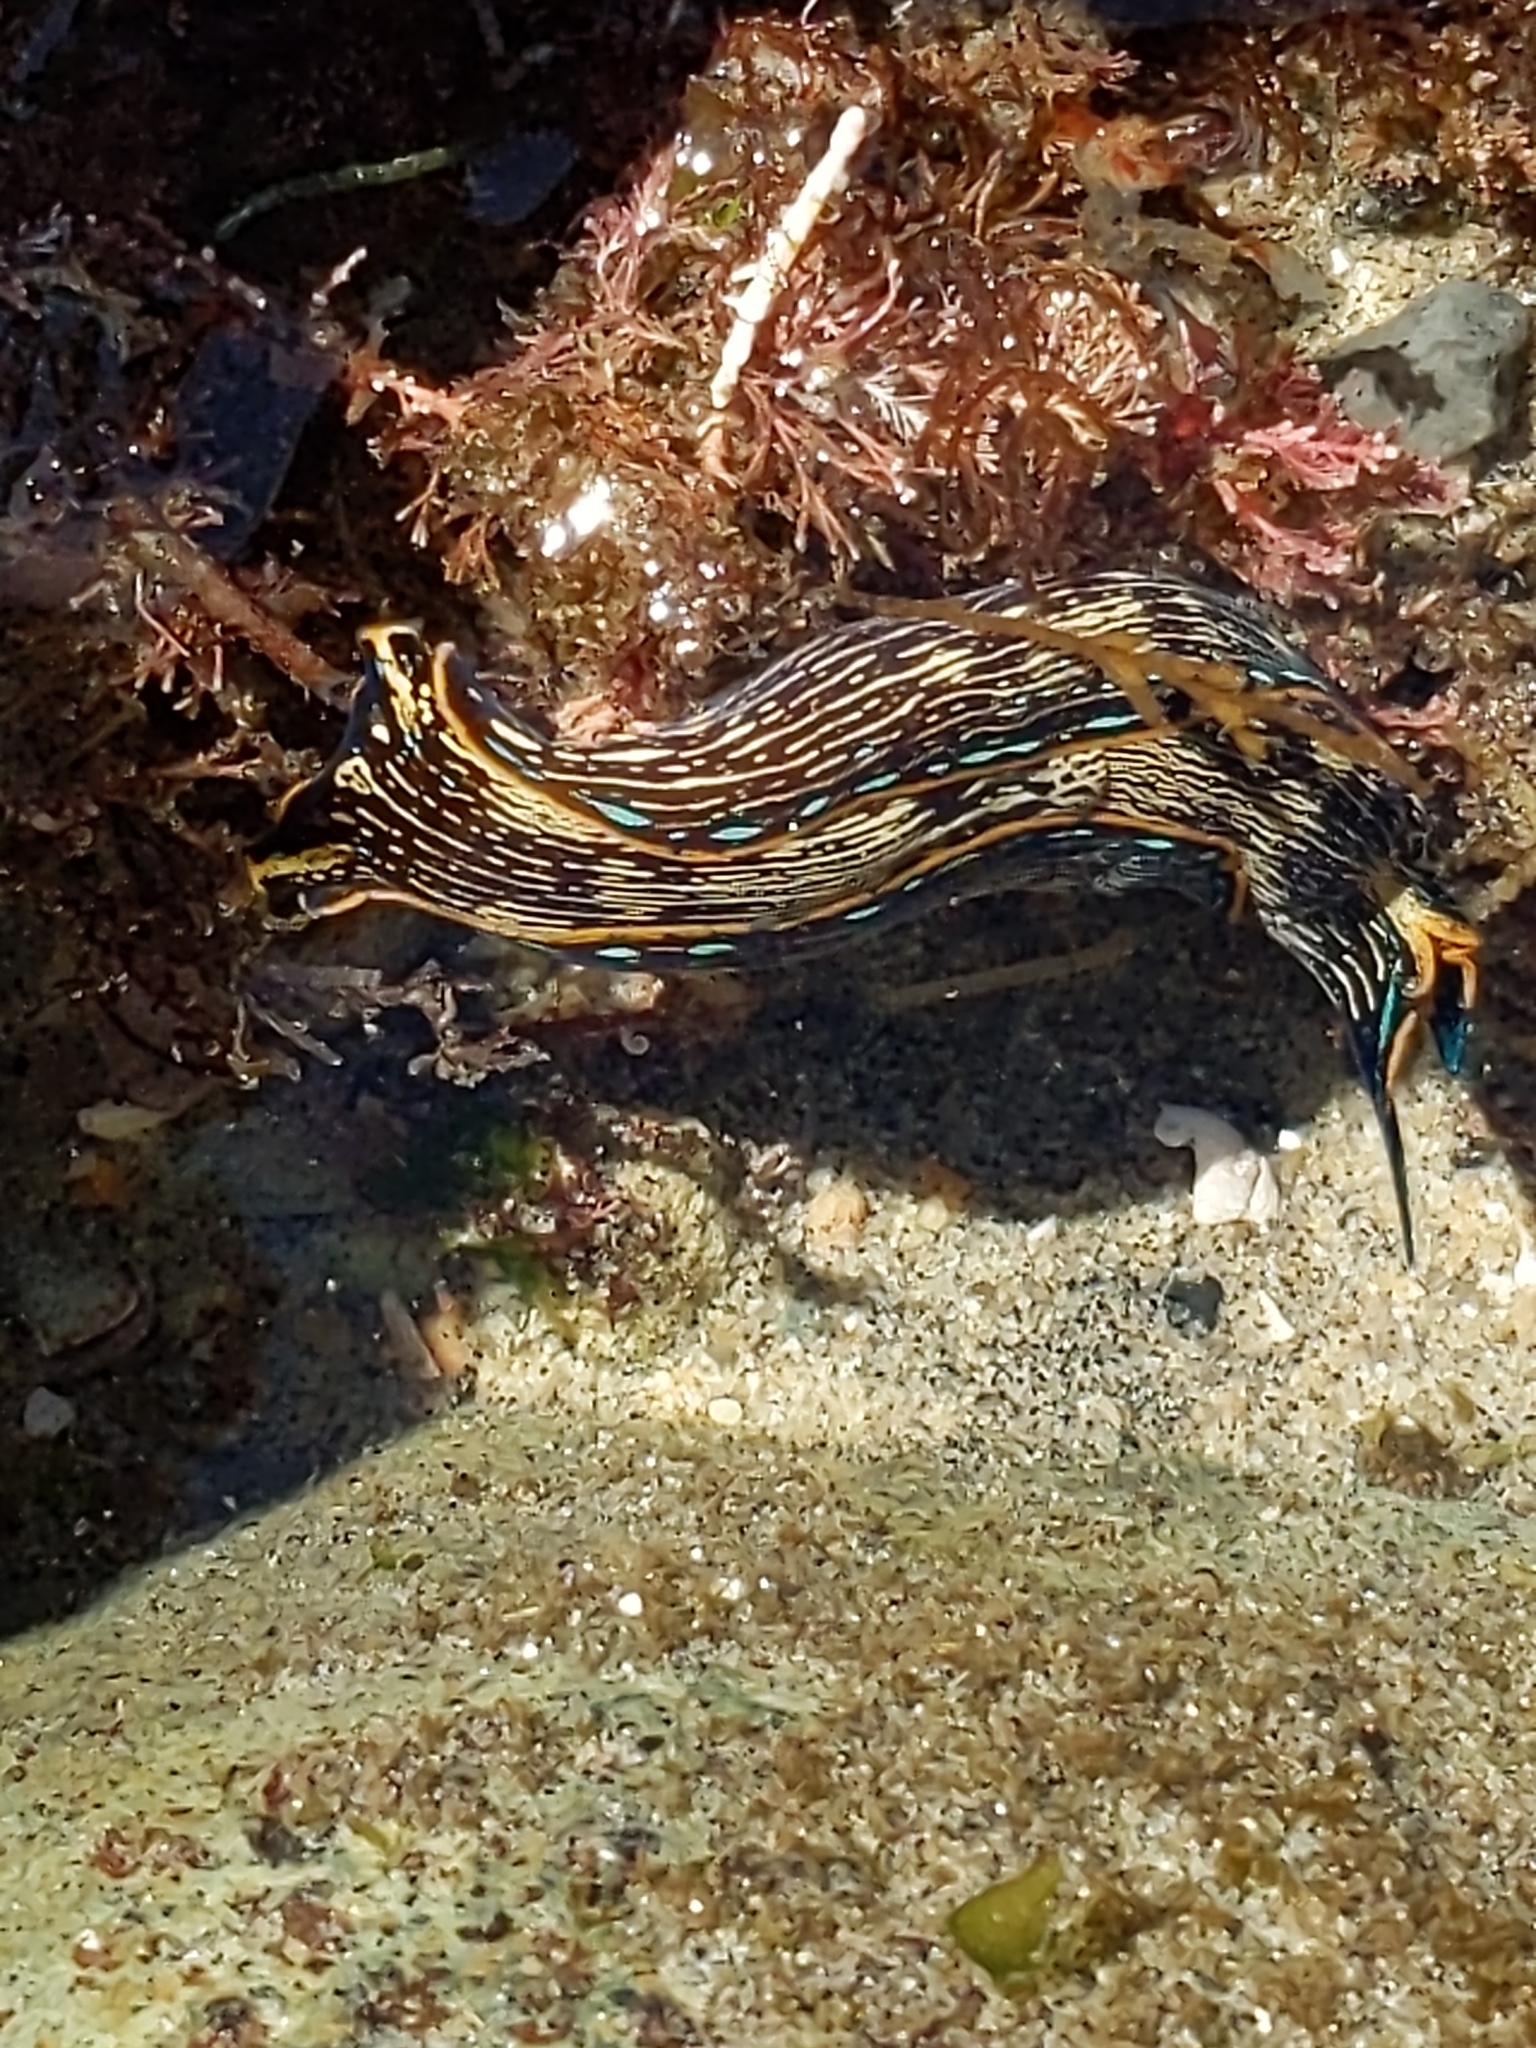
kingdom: Animalia
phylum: Mollusca
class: Gastropoda
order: Cephalaspidea
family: Aglajidae
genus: Navanax
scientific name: Navanax inermis
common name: California aglaja
